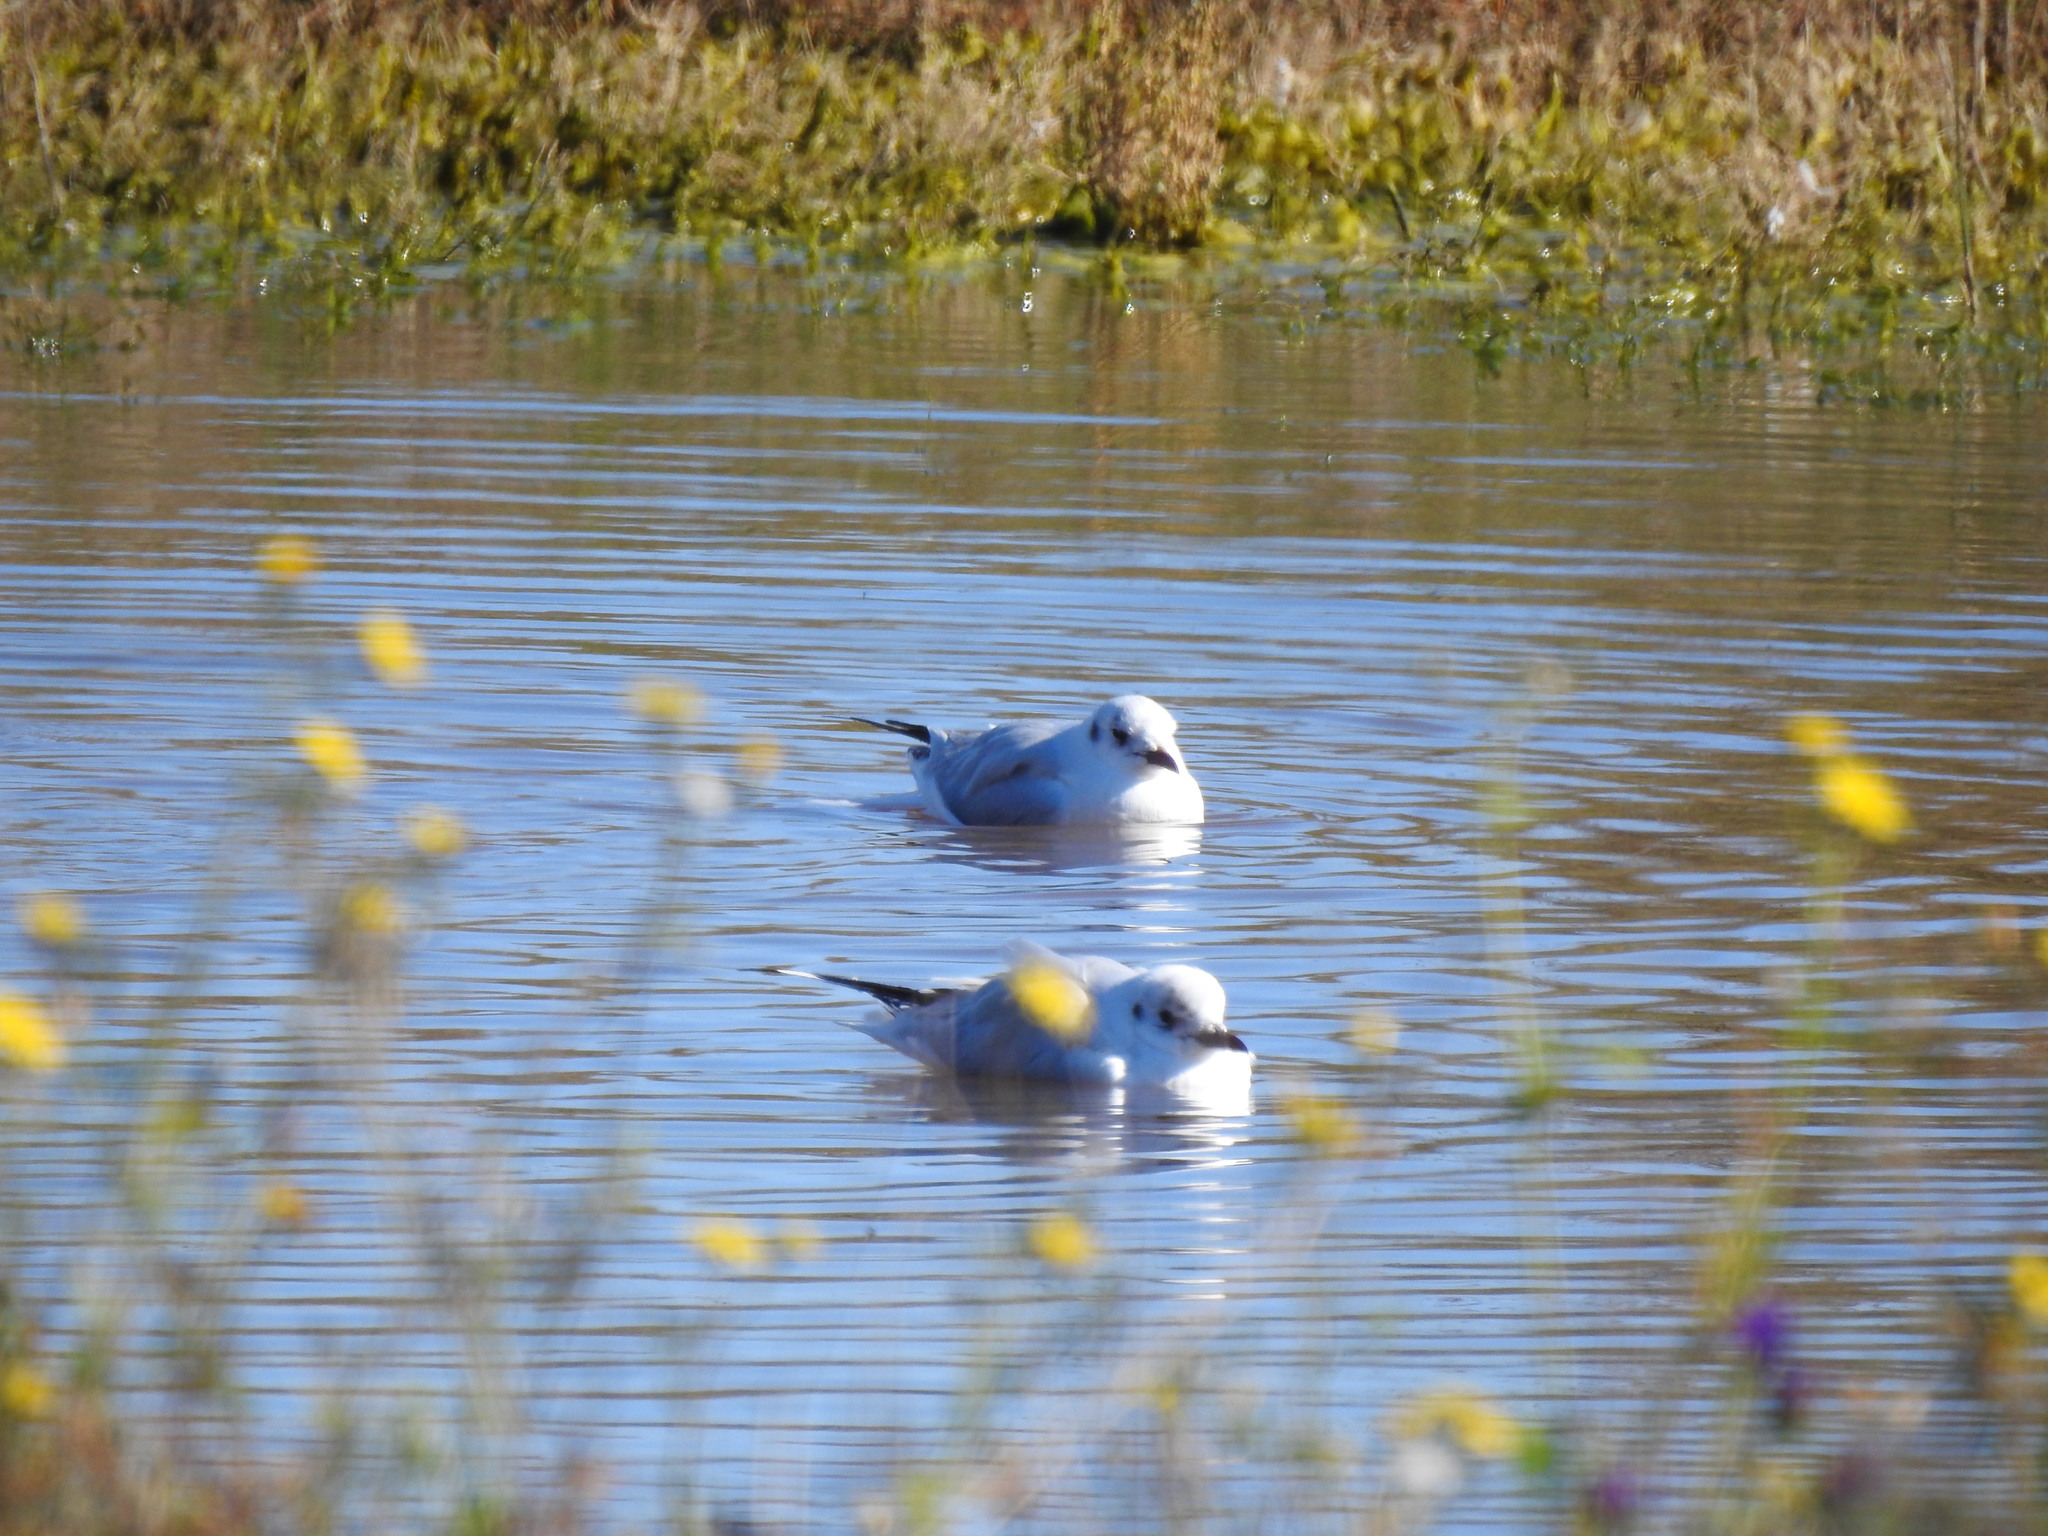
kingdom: Animalia
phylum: Chordata
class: Aves
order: Charadriiformes
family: Laridae
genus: Chroicocephalus
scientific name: Chroicocephalus ridibundus
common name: Black-headed gull
